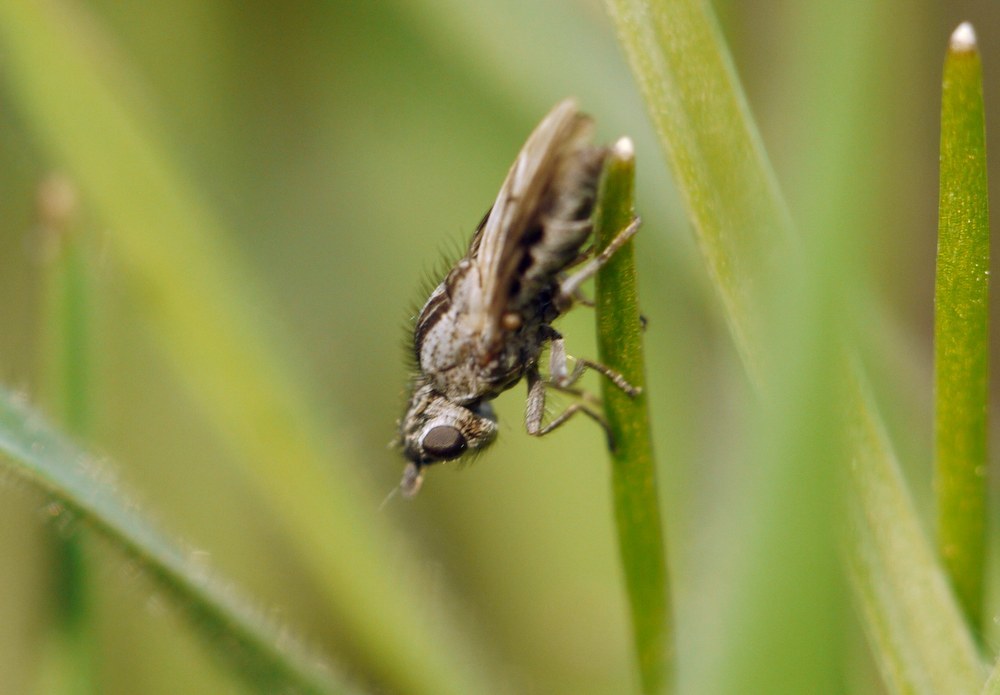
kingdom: Animalia
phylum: Arthropoda
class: Insecta
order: Diptera
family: Chloropidae
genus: Trichieurina
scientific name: Trichieurina pubescens
